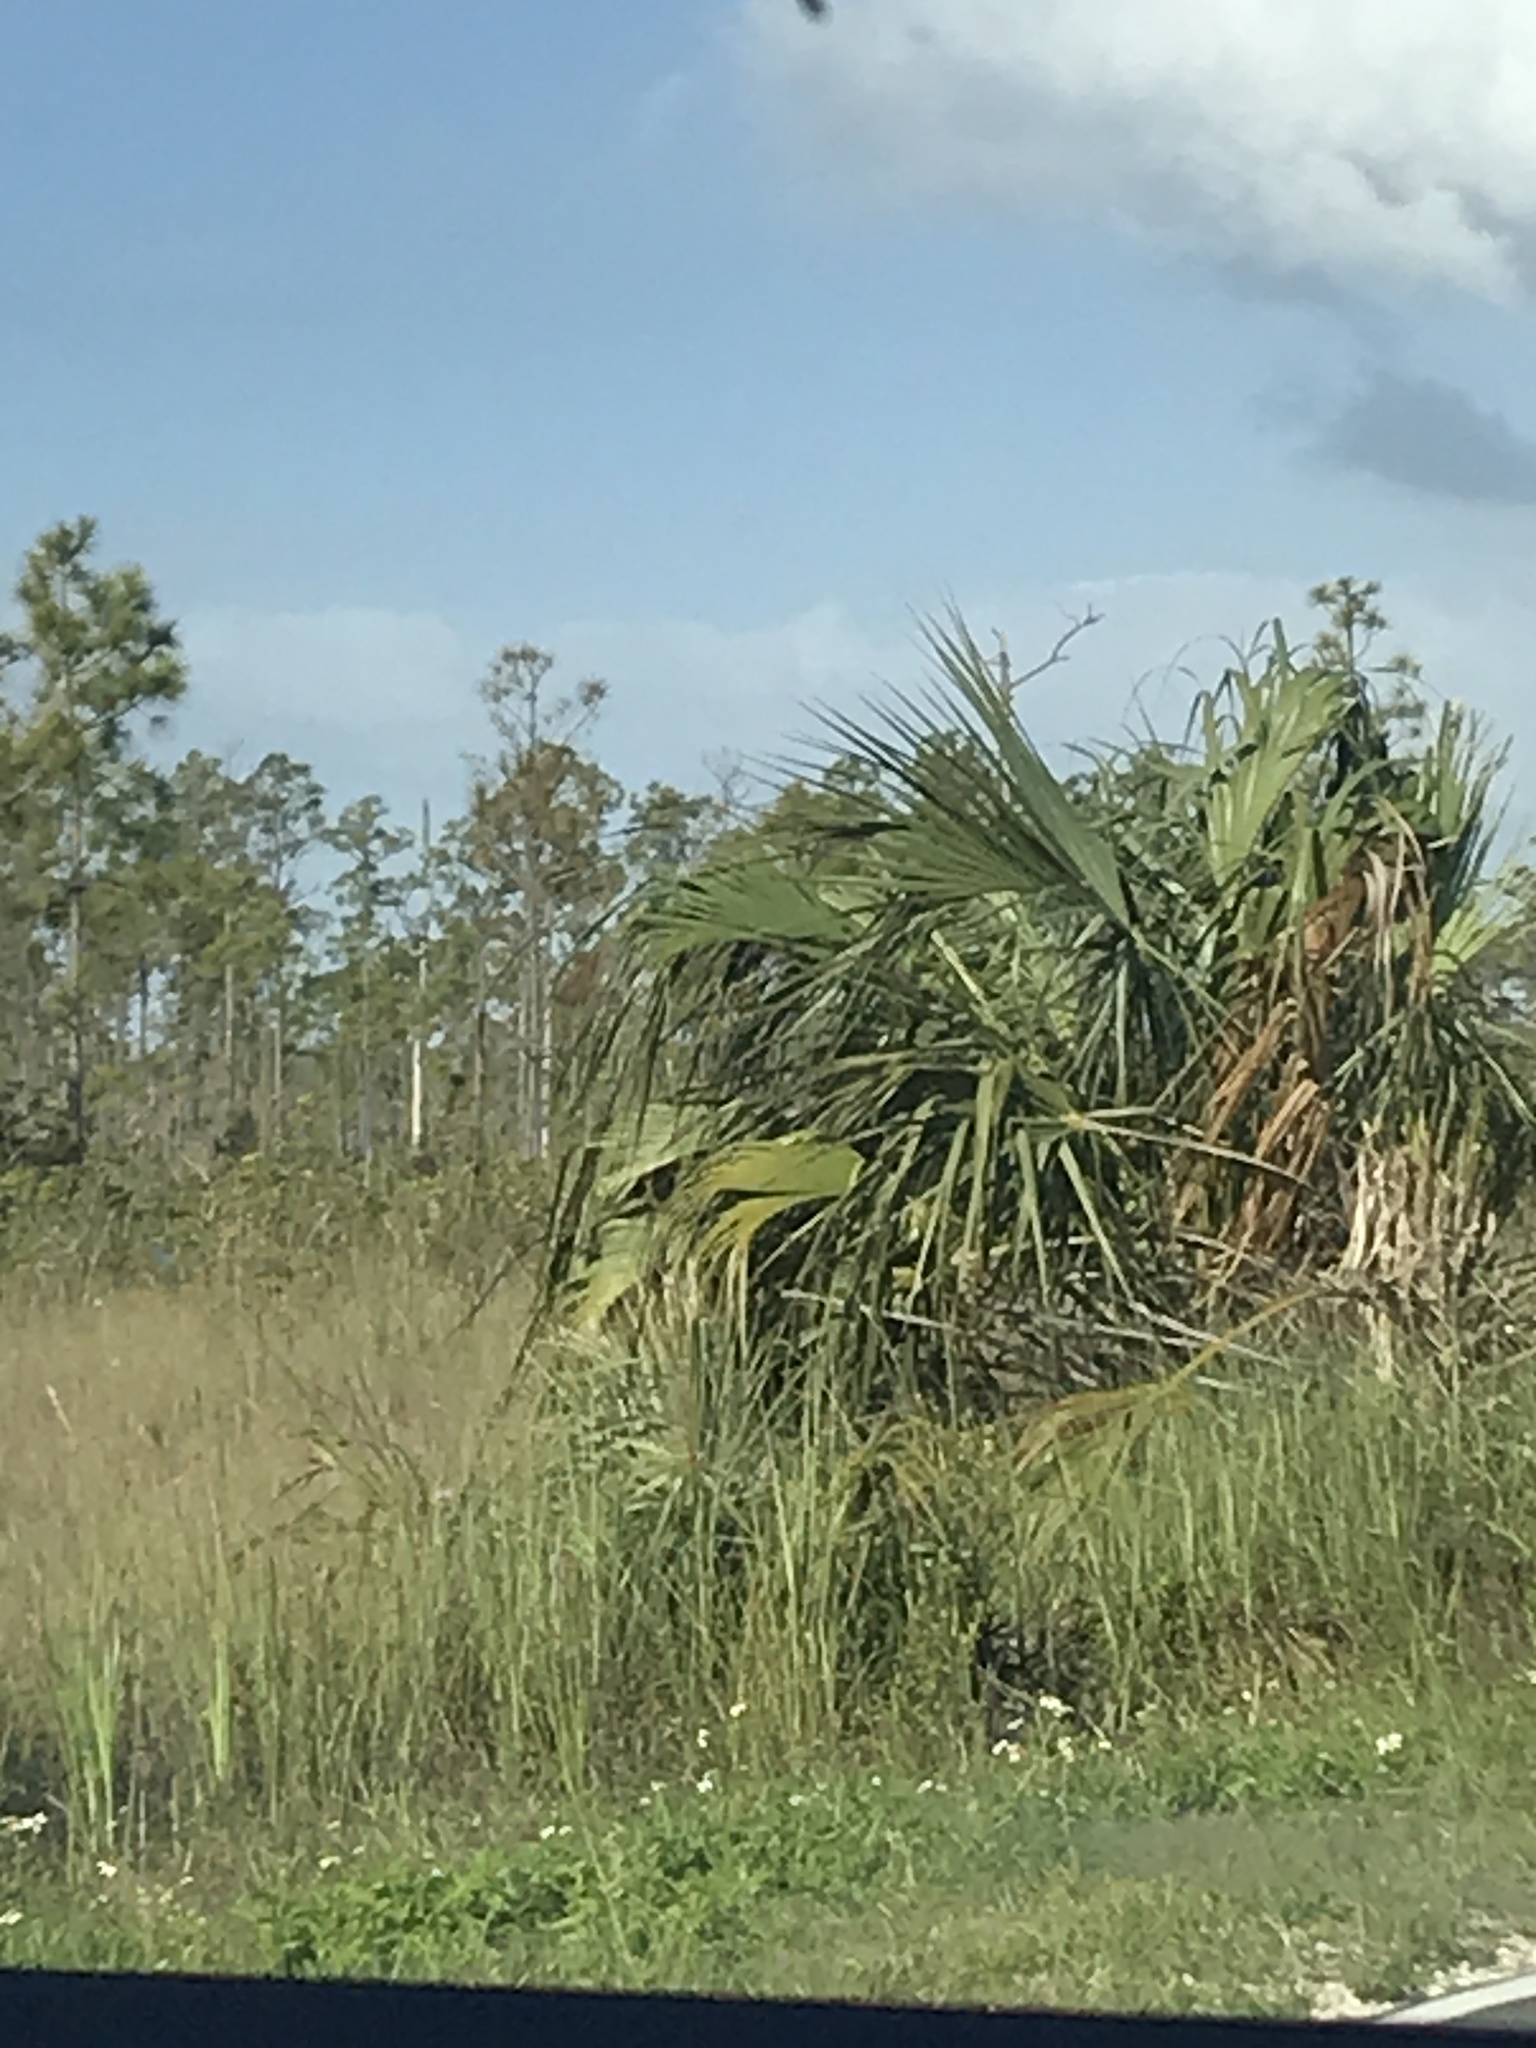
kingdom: Plantae
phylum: Tracheophyta
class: Liliopsida
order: Arecales
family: Arecaceae
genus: Sabal
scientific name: Sabal palmetto
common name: Blue palmetto
